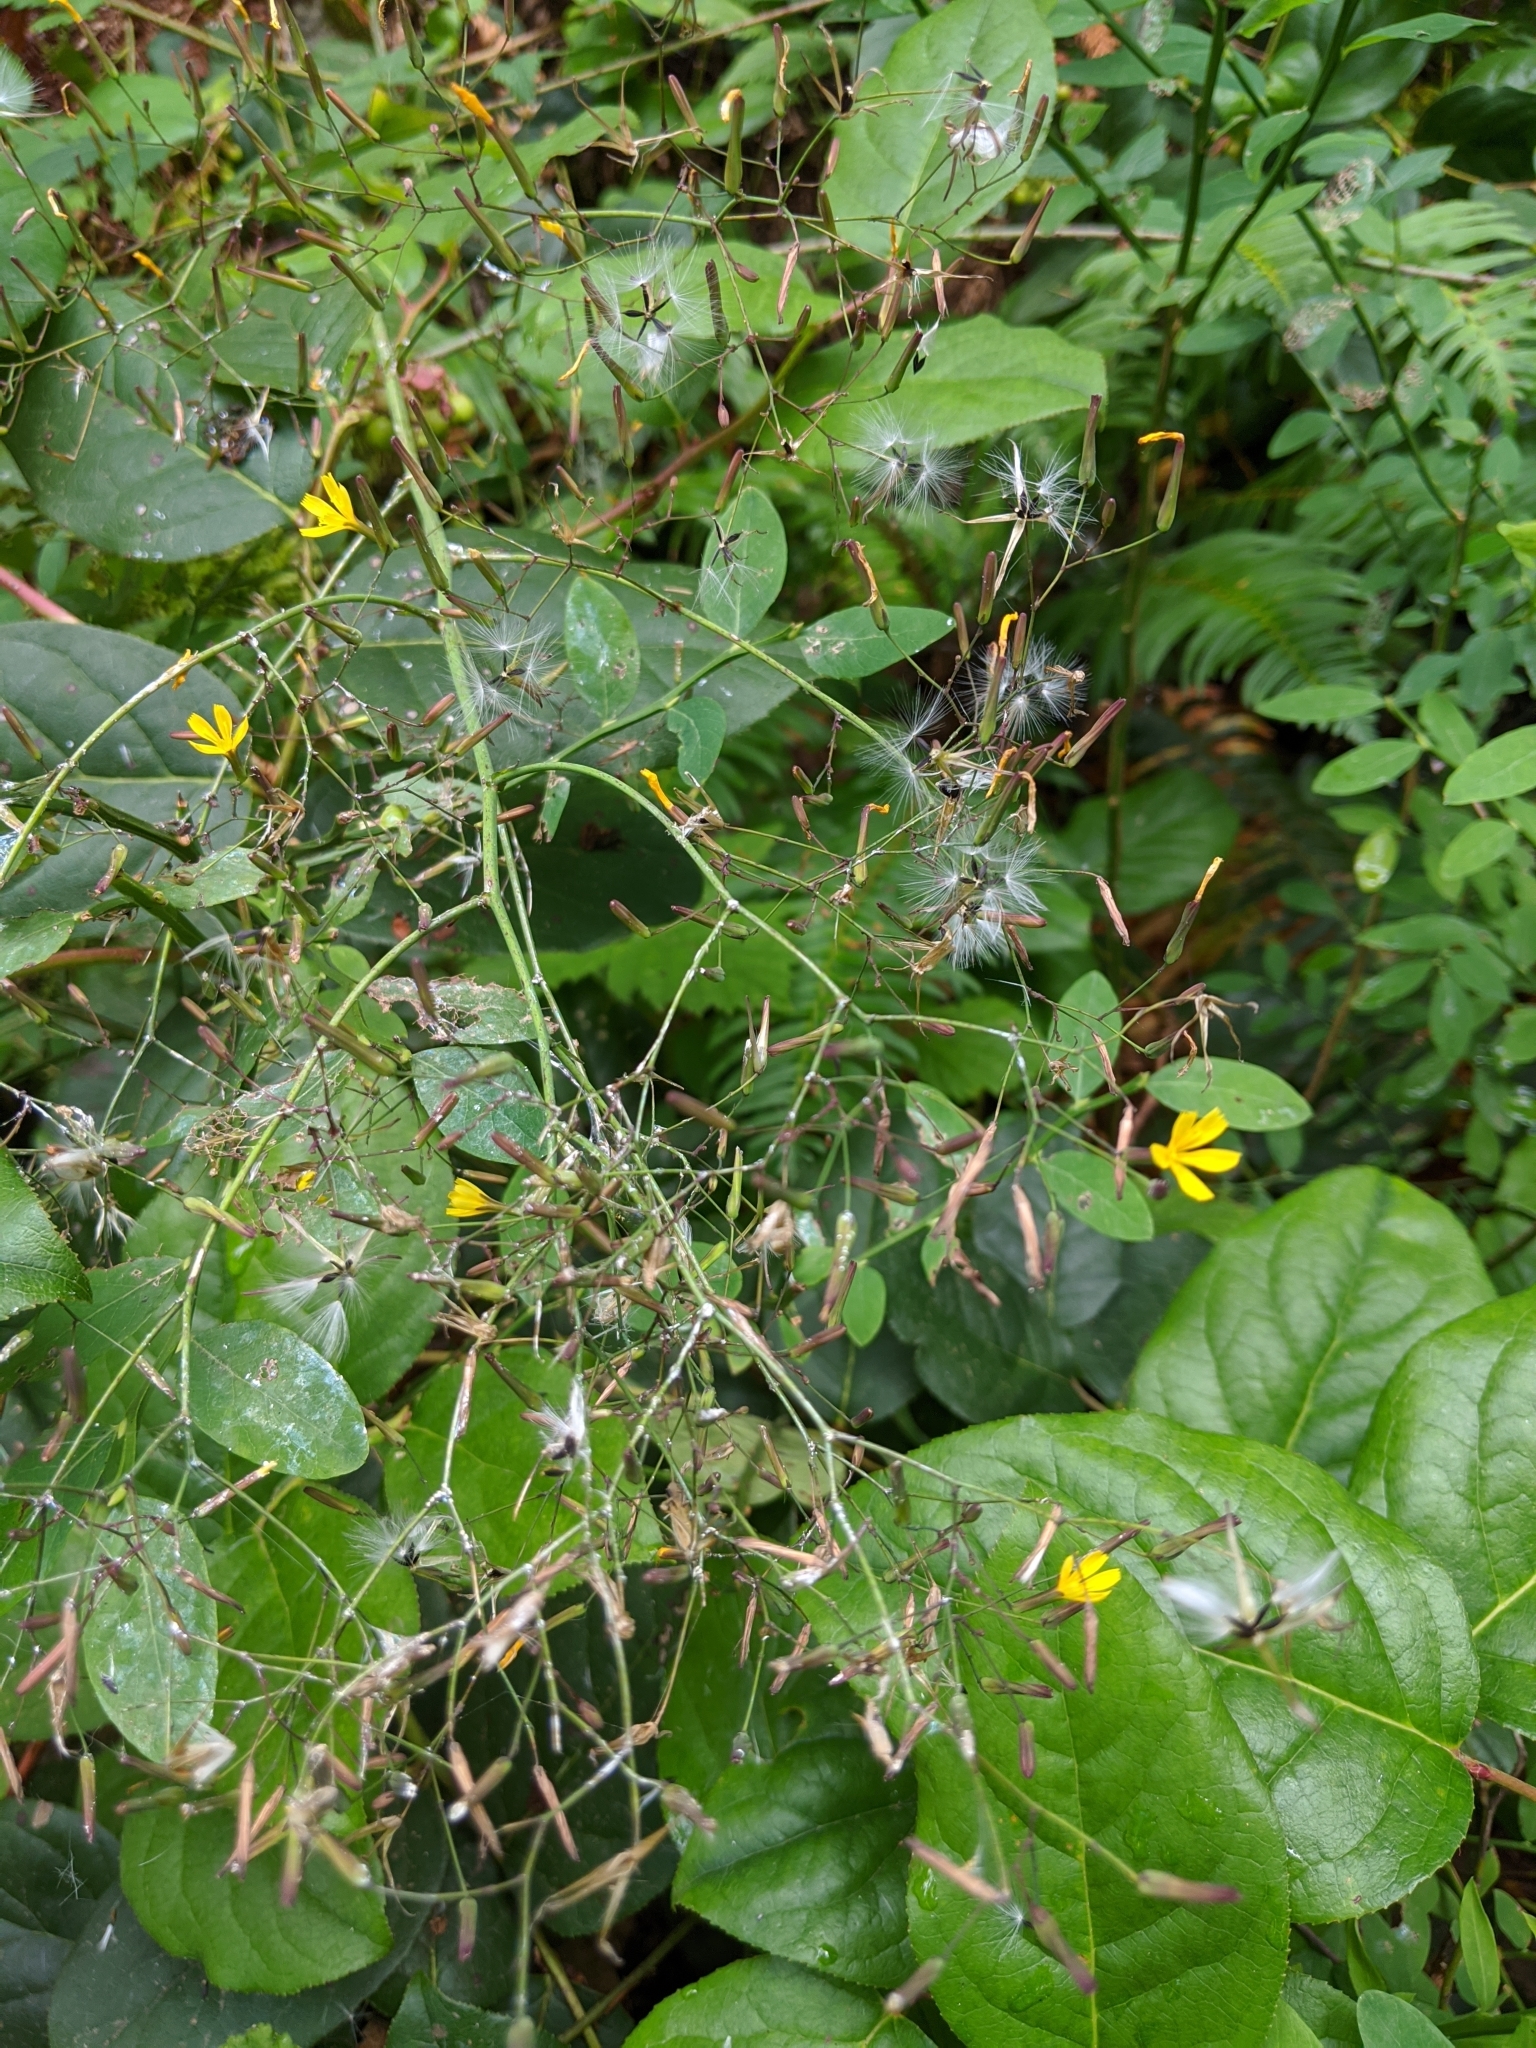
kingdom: Plantae
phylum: Tracheophyta
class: Magnoliopsida
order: Asterales
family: Asteraceae
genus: Mycelis
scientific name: Mycelis muralis
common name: Wall lettuce
